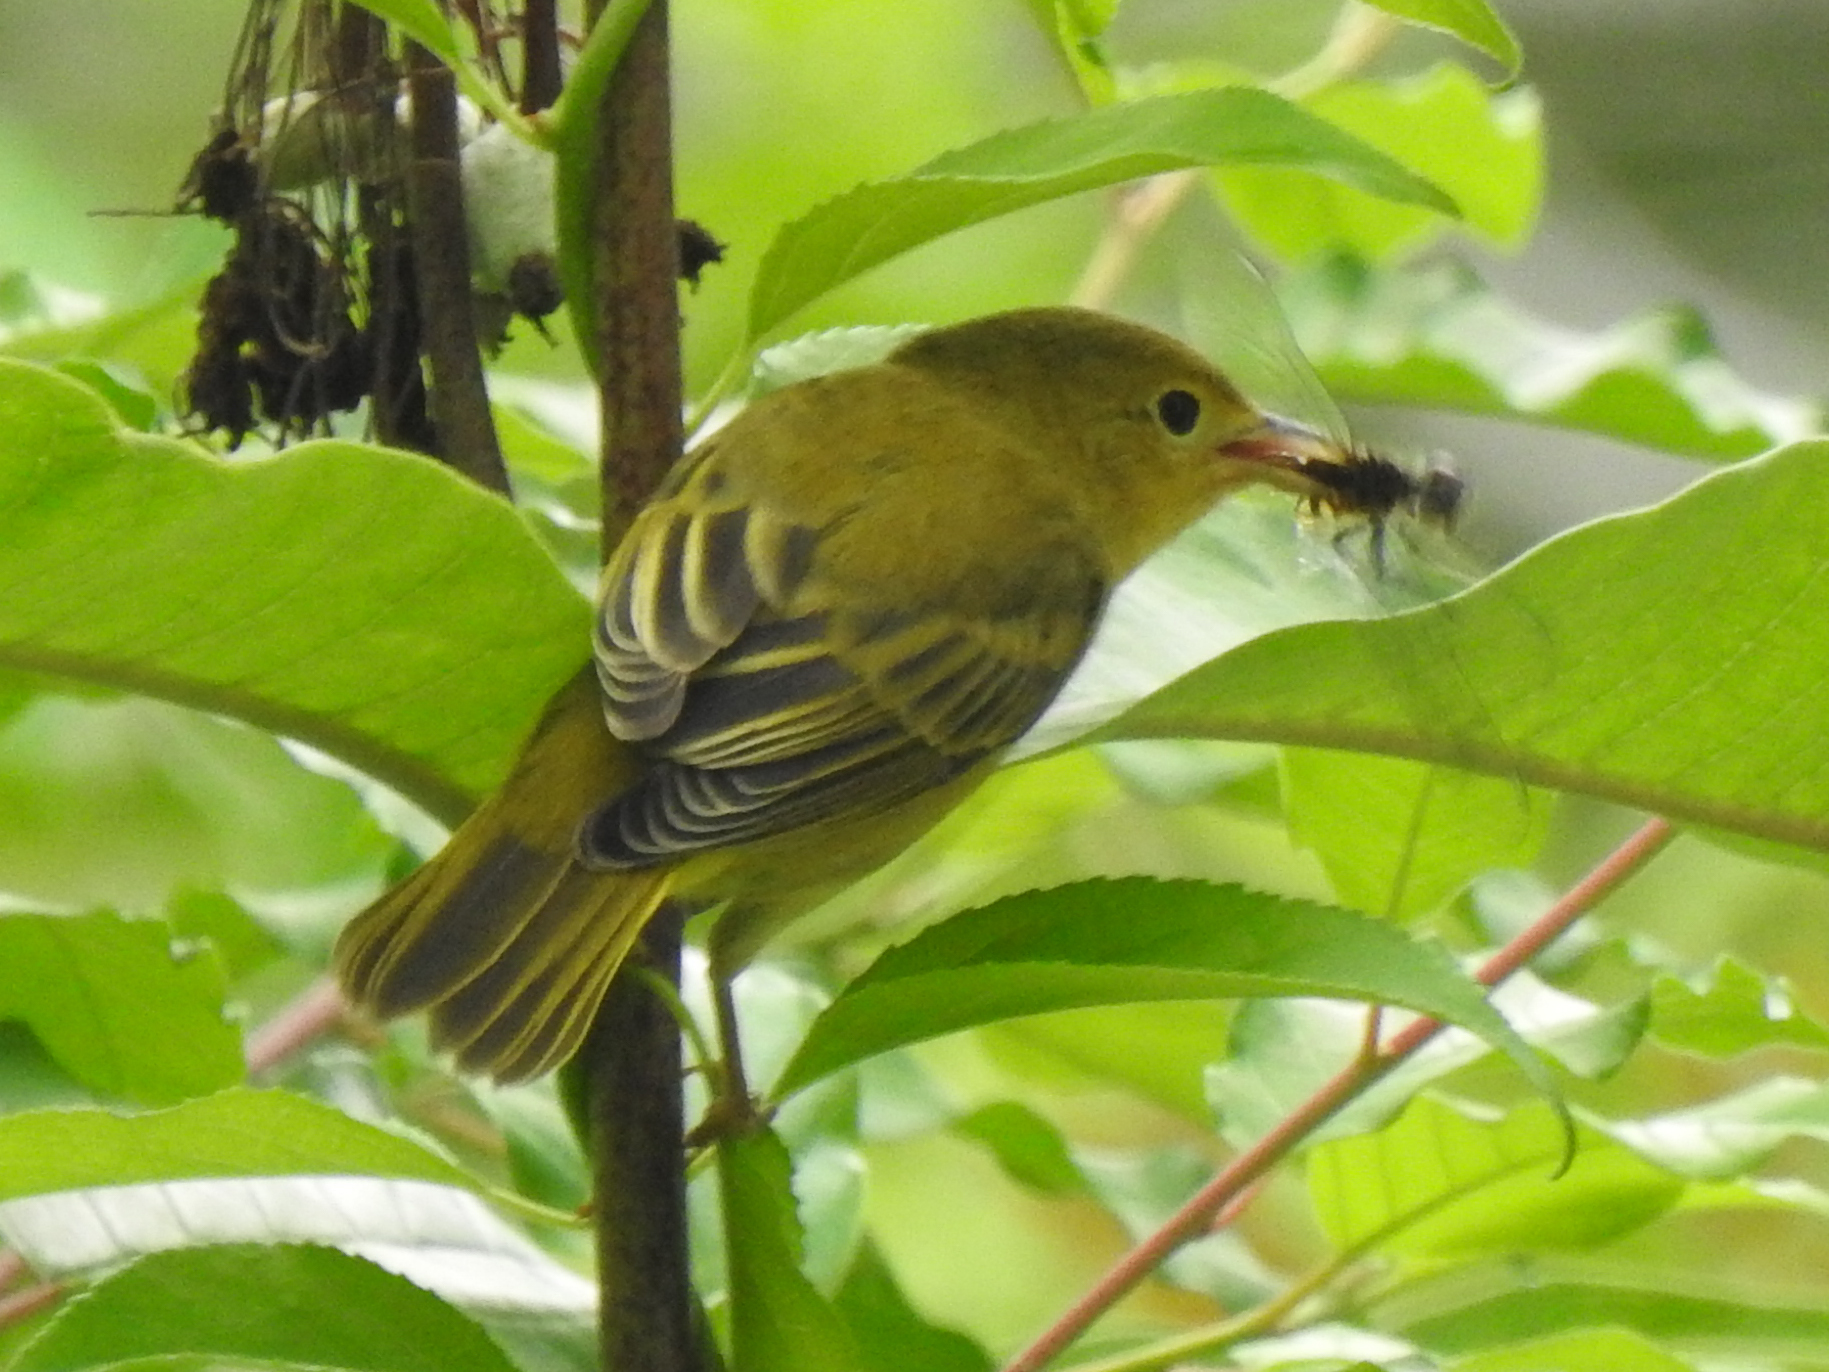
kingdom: Animalia
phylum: Chordata
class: Aves
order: Passeriformes
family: Parulidae
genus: Setophaga
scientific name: Setophaga petechia
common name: Yellow warbler
